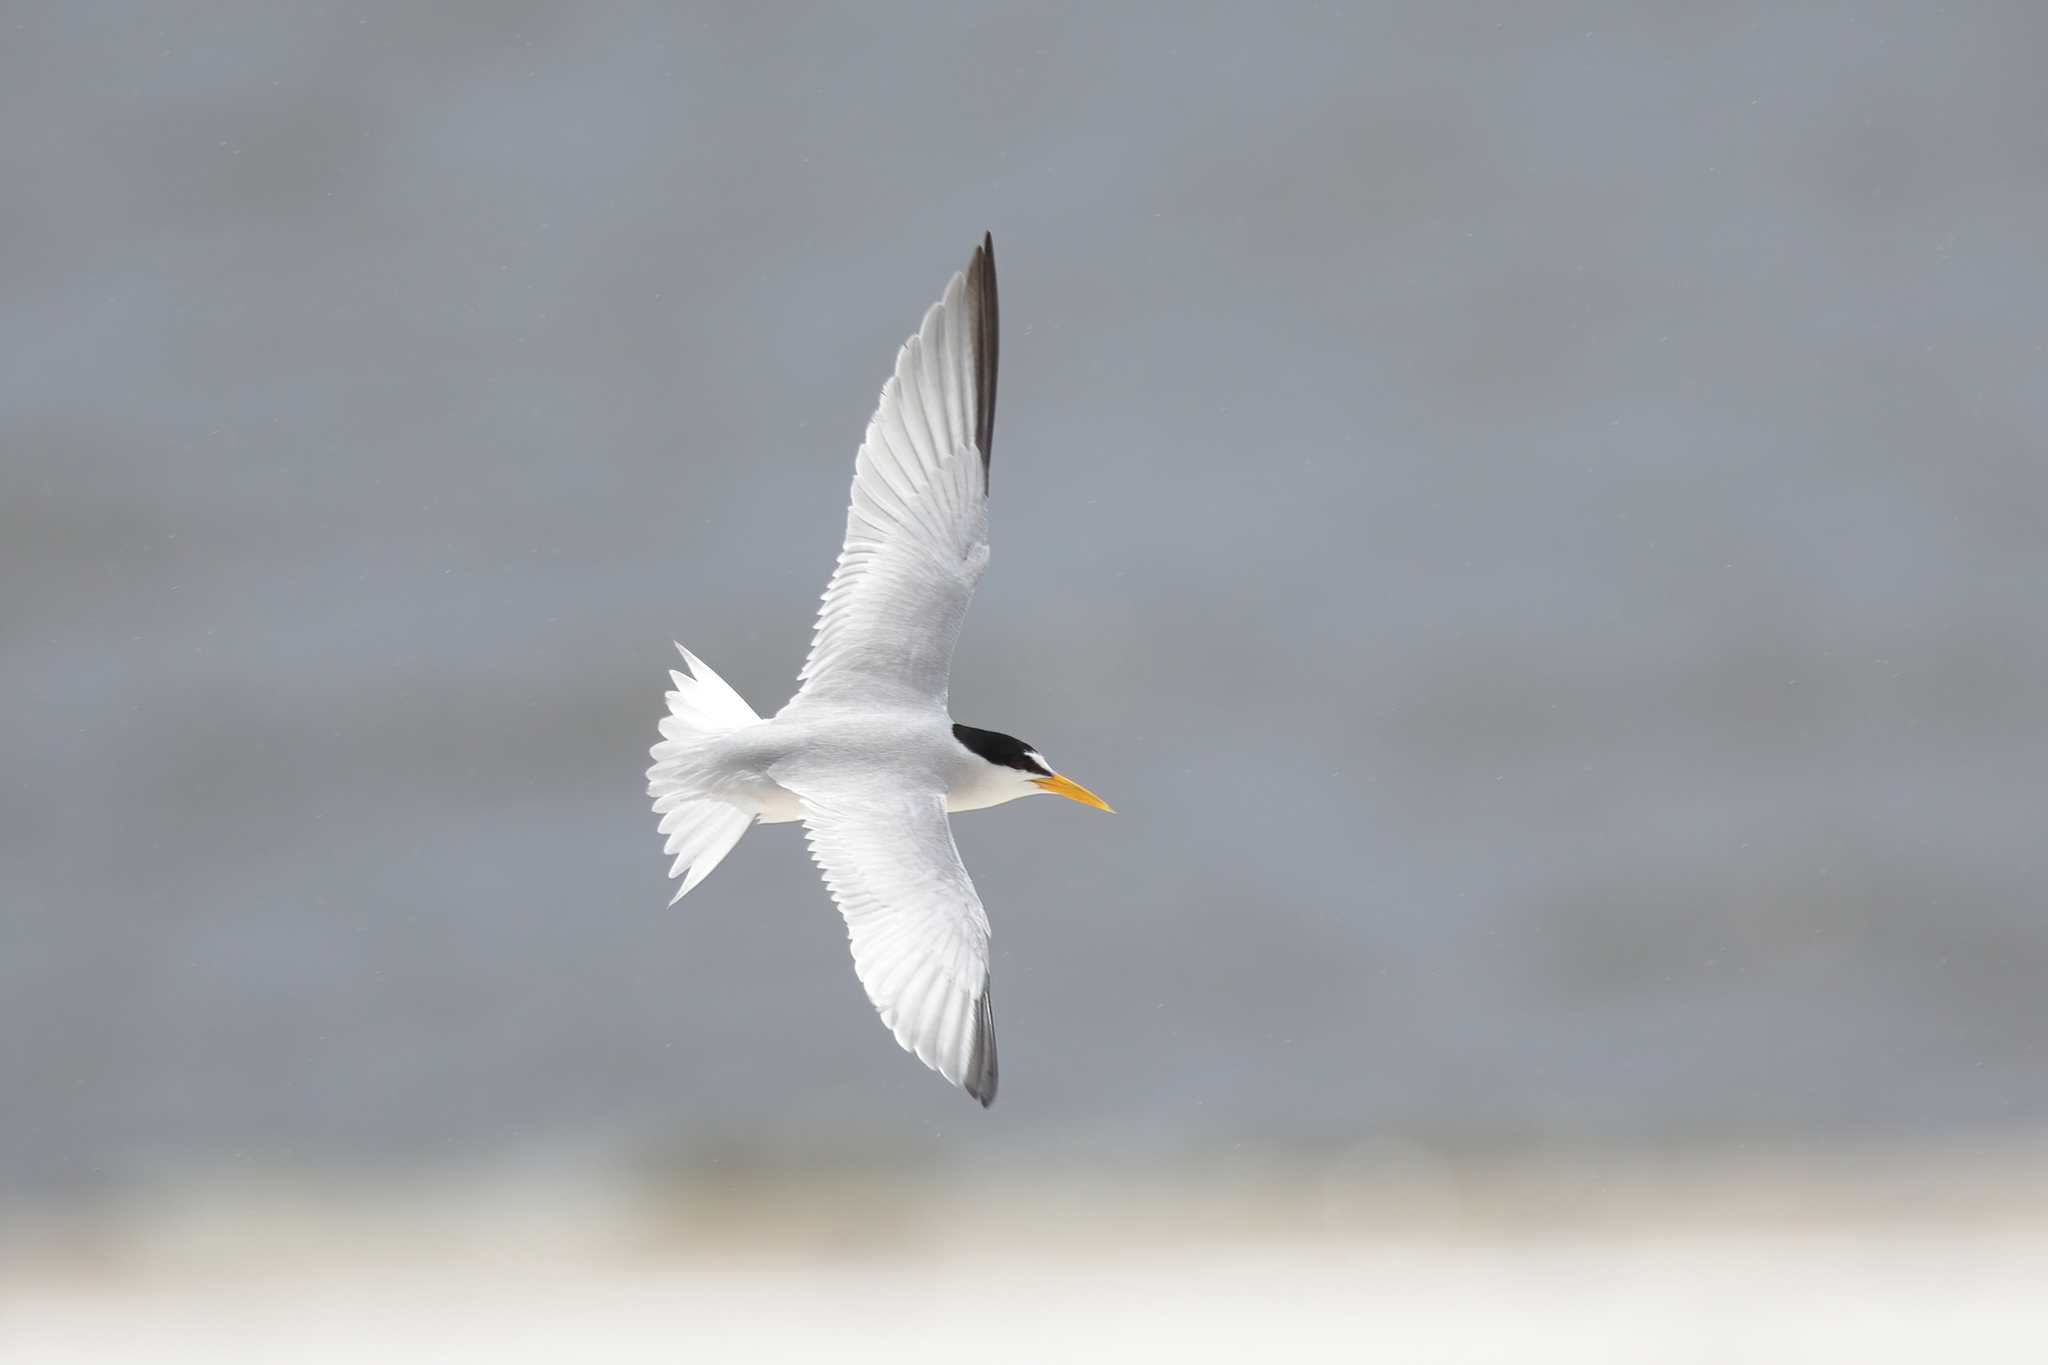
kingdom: Animalia
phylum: Chordata
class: Aves
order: Charadriiformes
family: Laridae
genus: Sternula
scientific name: Sternula antillarum
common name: Least tern
